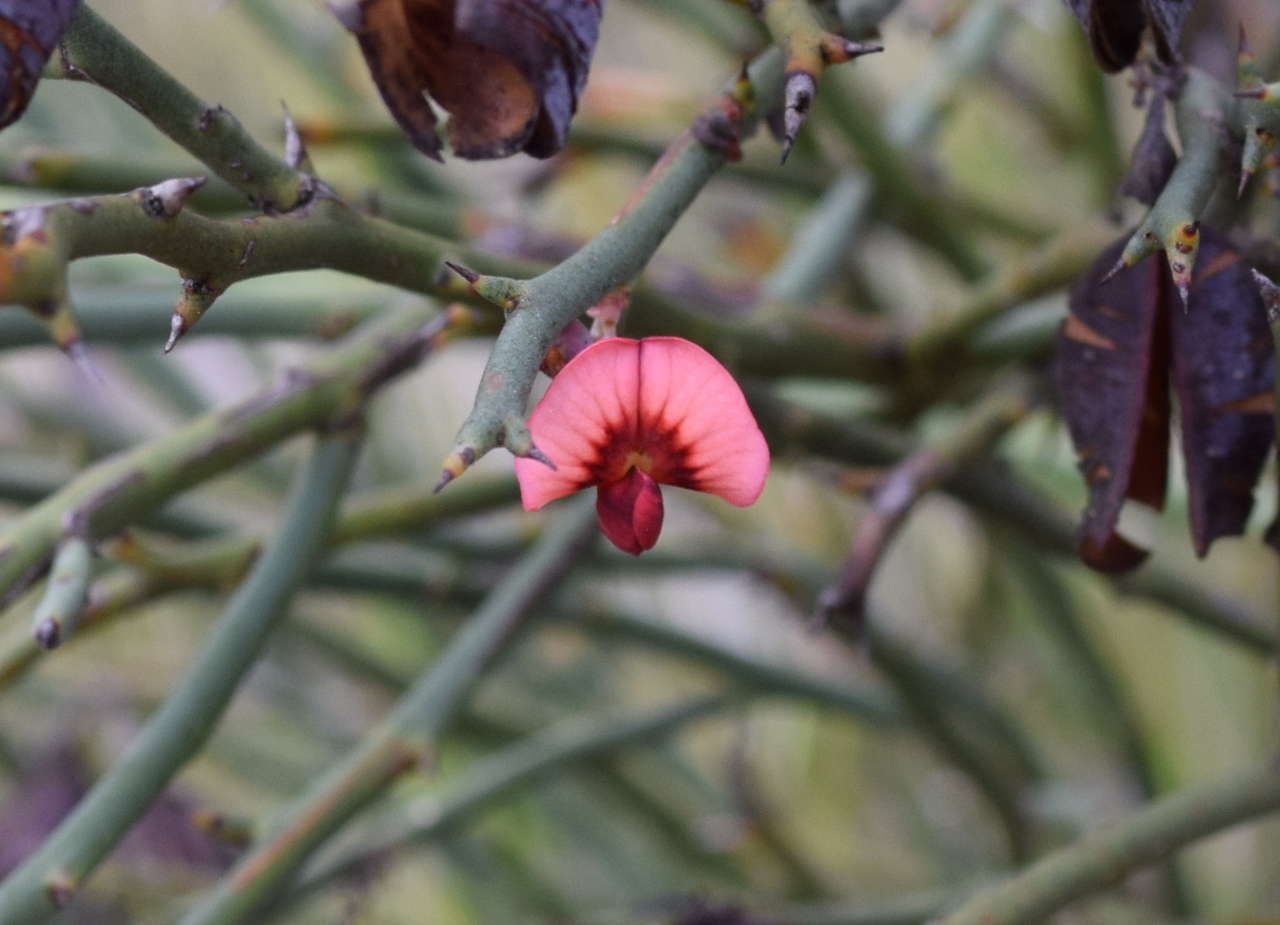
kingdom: Plantae
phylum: Tracheophyta
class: Magnoliopsida
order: Fabales
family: Fabaceae
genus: Daviesia
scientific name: Daviesia brevifolia
